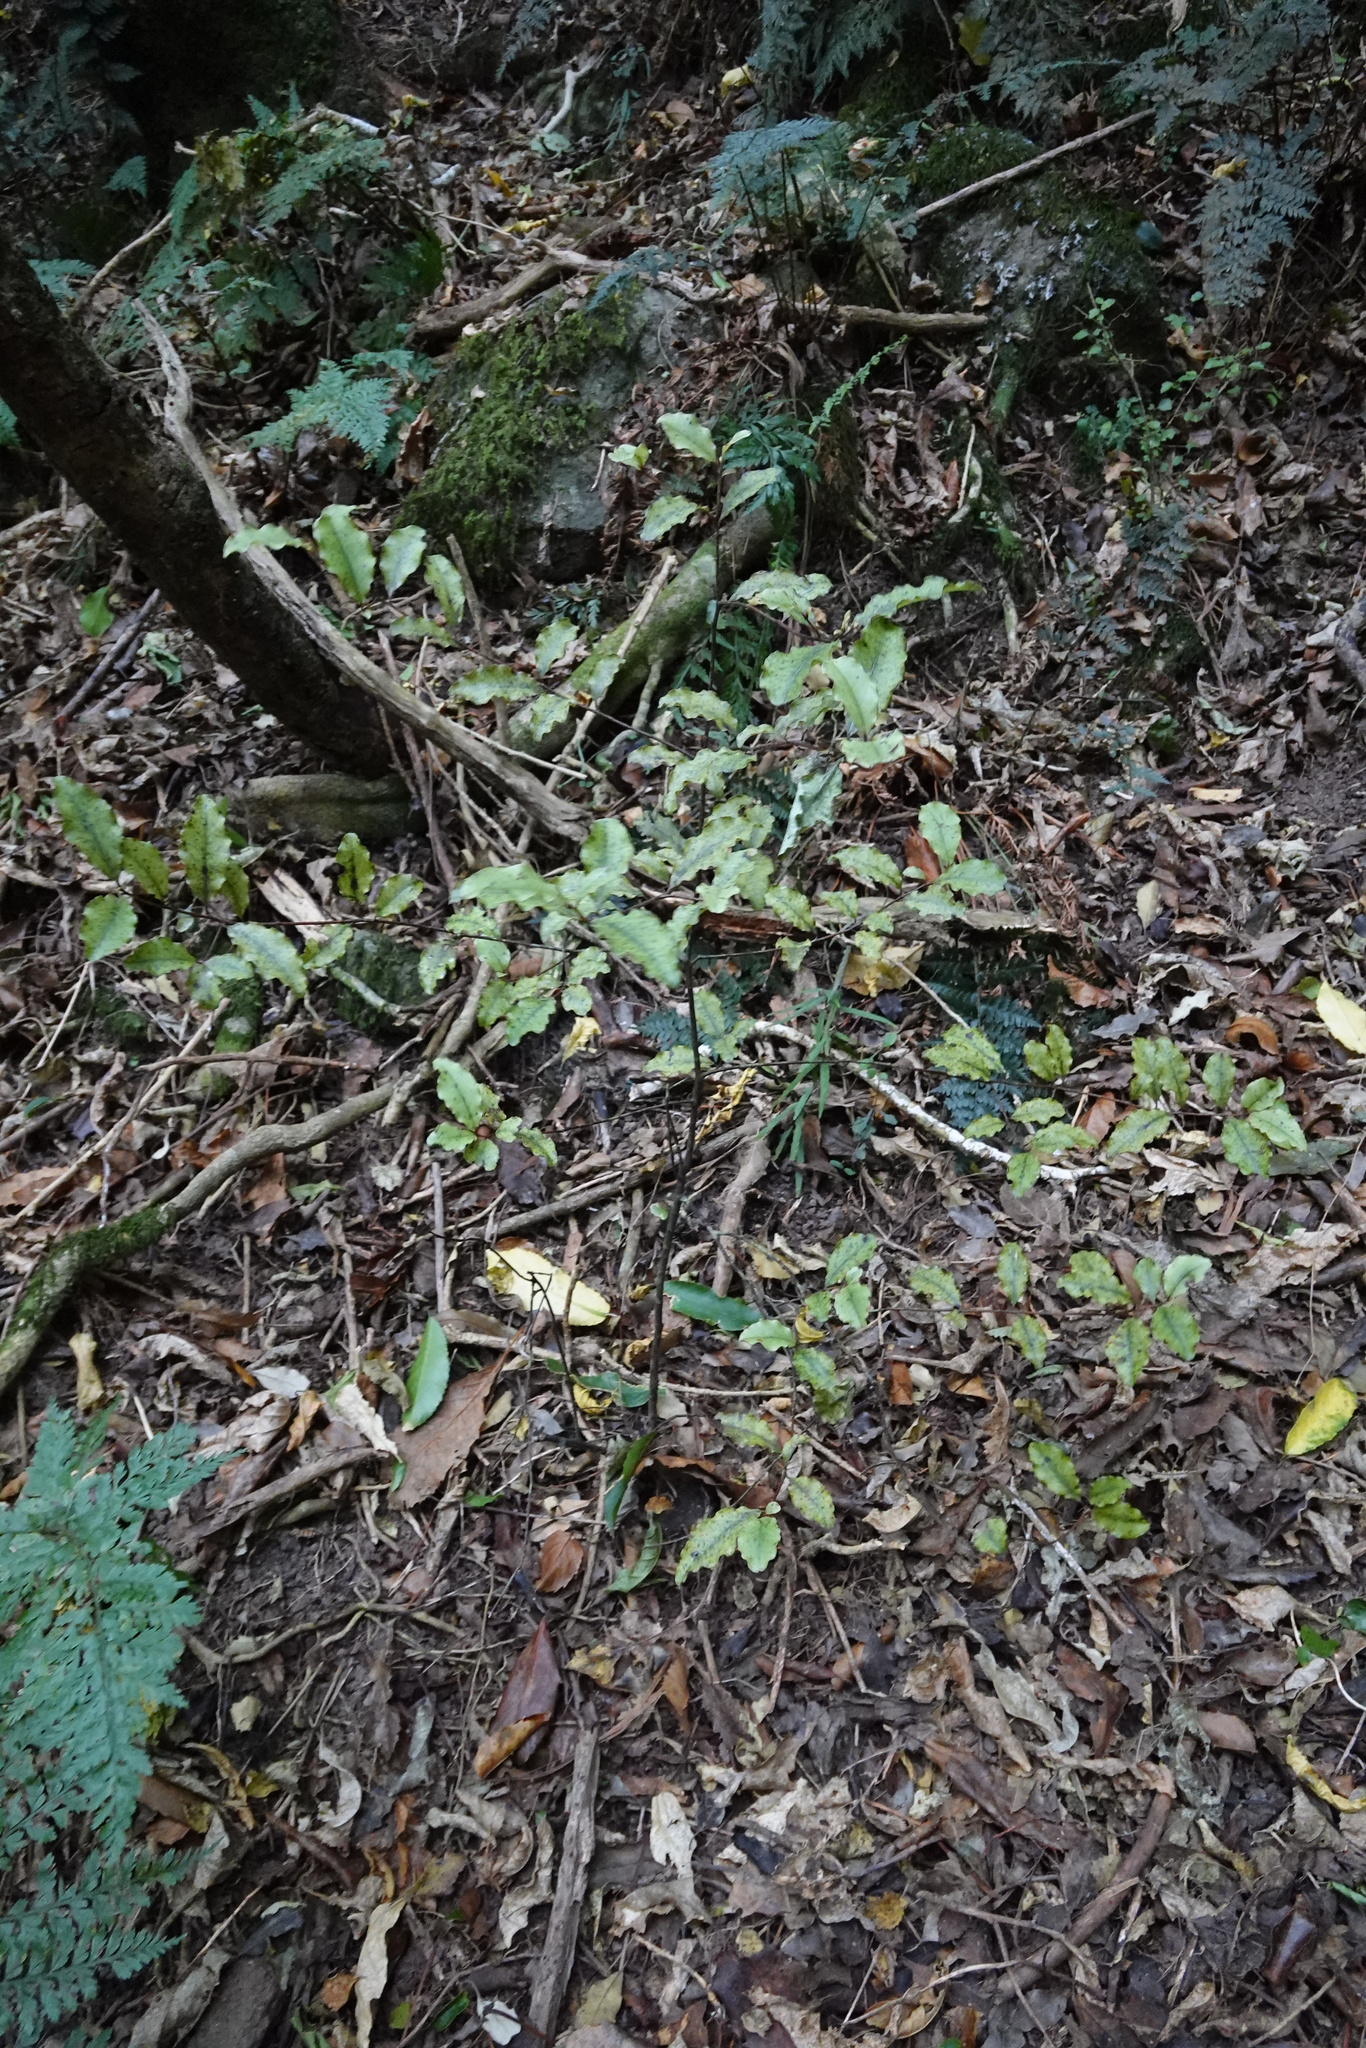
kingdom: Plantae
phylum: Tracheophyta
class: Magnoliopsida
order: Apiales
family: Pittosporaceae
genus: Pittosporum
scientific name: Pittosporum tenuifolium
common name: Kohuhu
